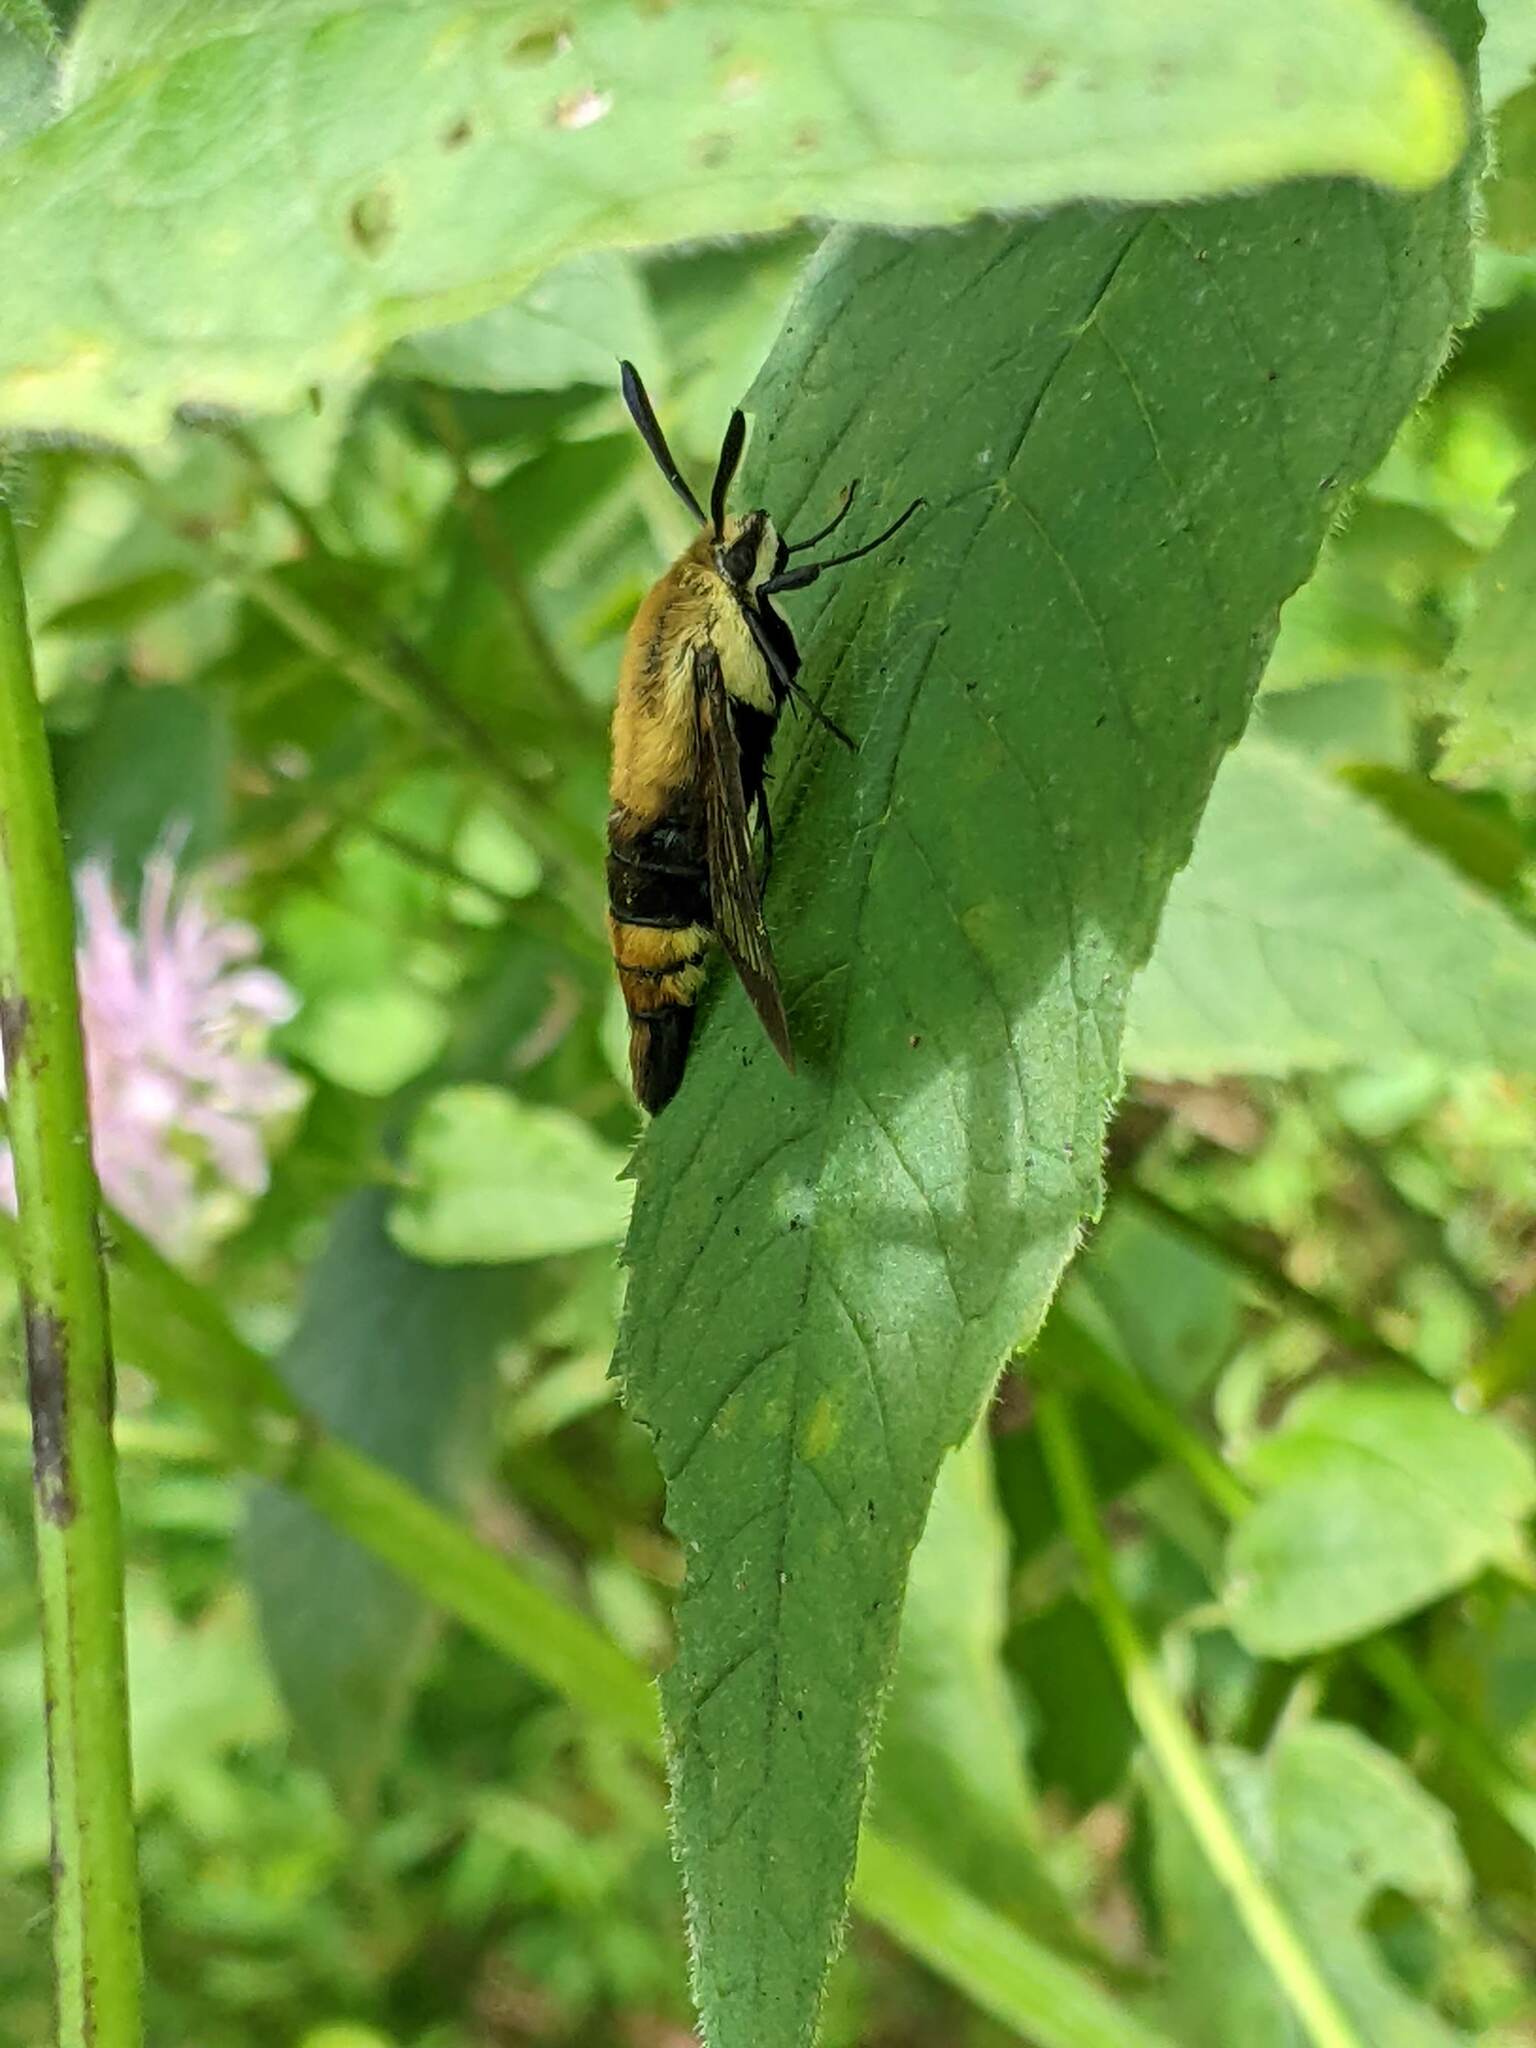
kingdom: Animalia
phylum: Arthropoda
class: Insecta
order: Lepidoptera
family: Sphingidae
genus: Hemaris
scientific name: Hemaris diffinis
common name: Bumblebee moth
